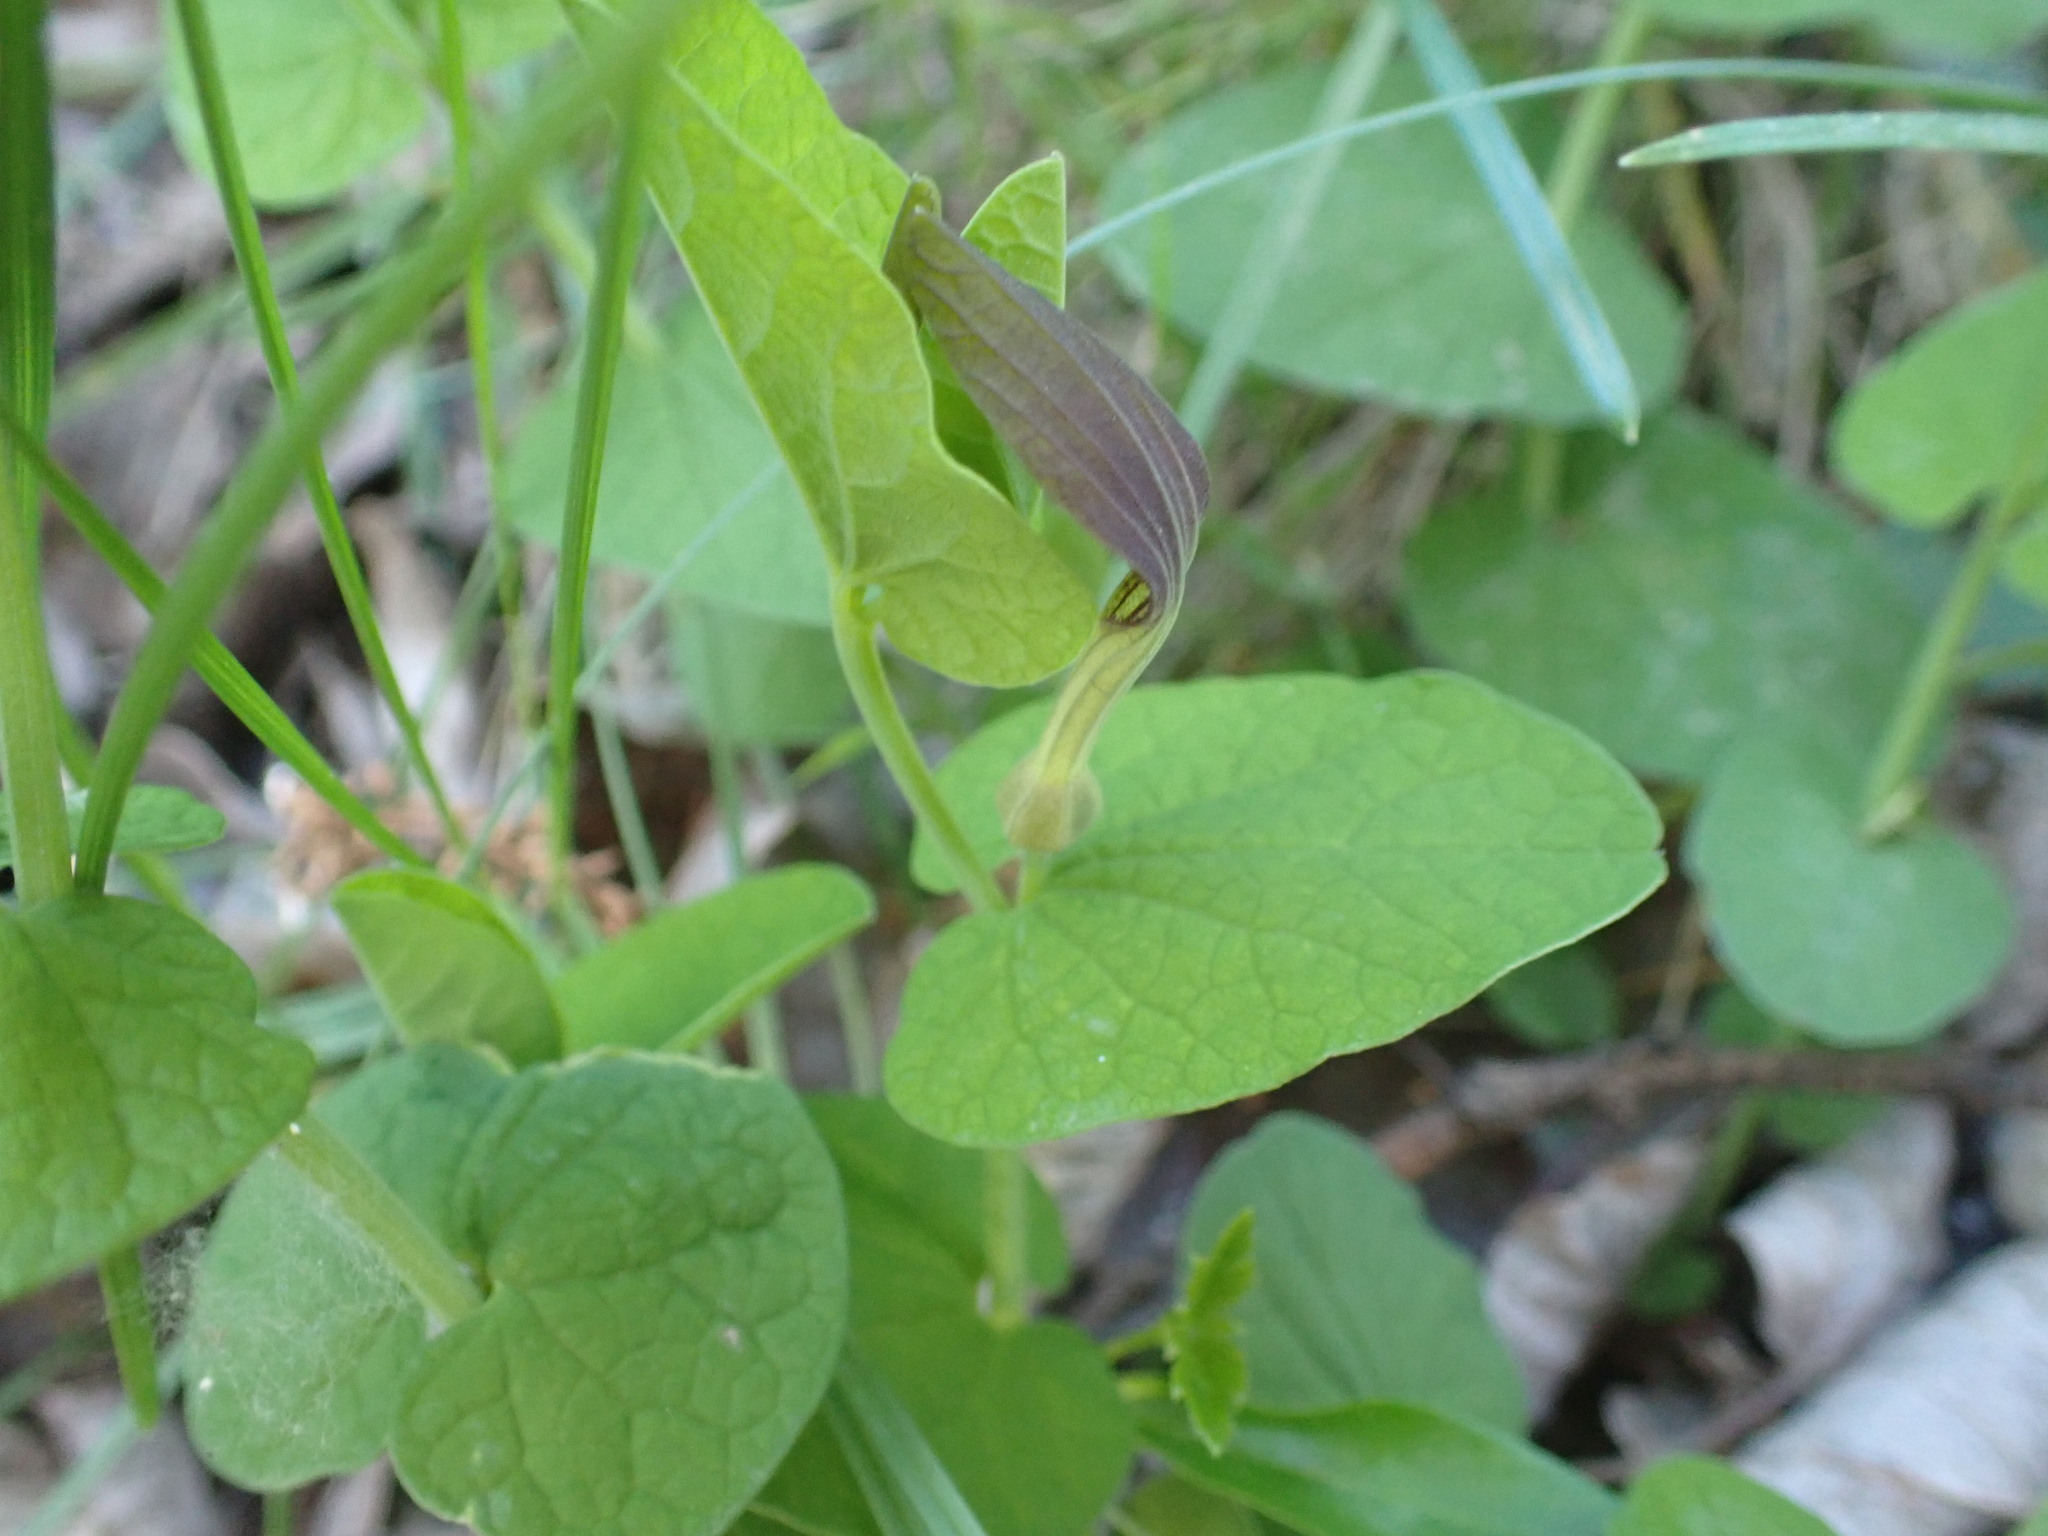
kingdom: Plantae
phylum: Tracheophyta
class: Magnoliopsida
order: Piperales
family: Aristolochiaceae
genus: Aristolochia
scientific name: Aristolochia rotunda
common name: Smearwort
